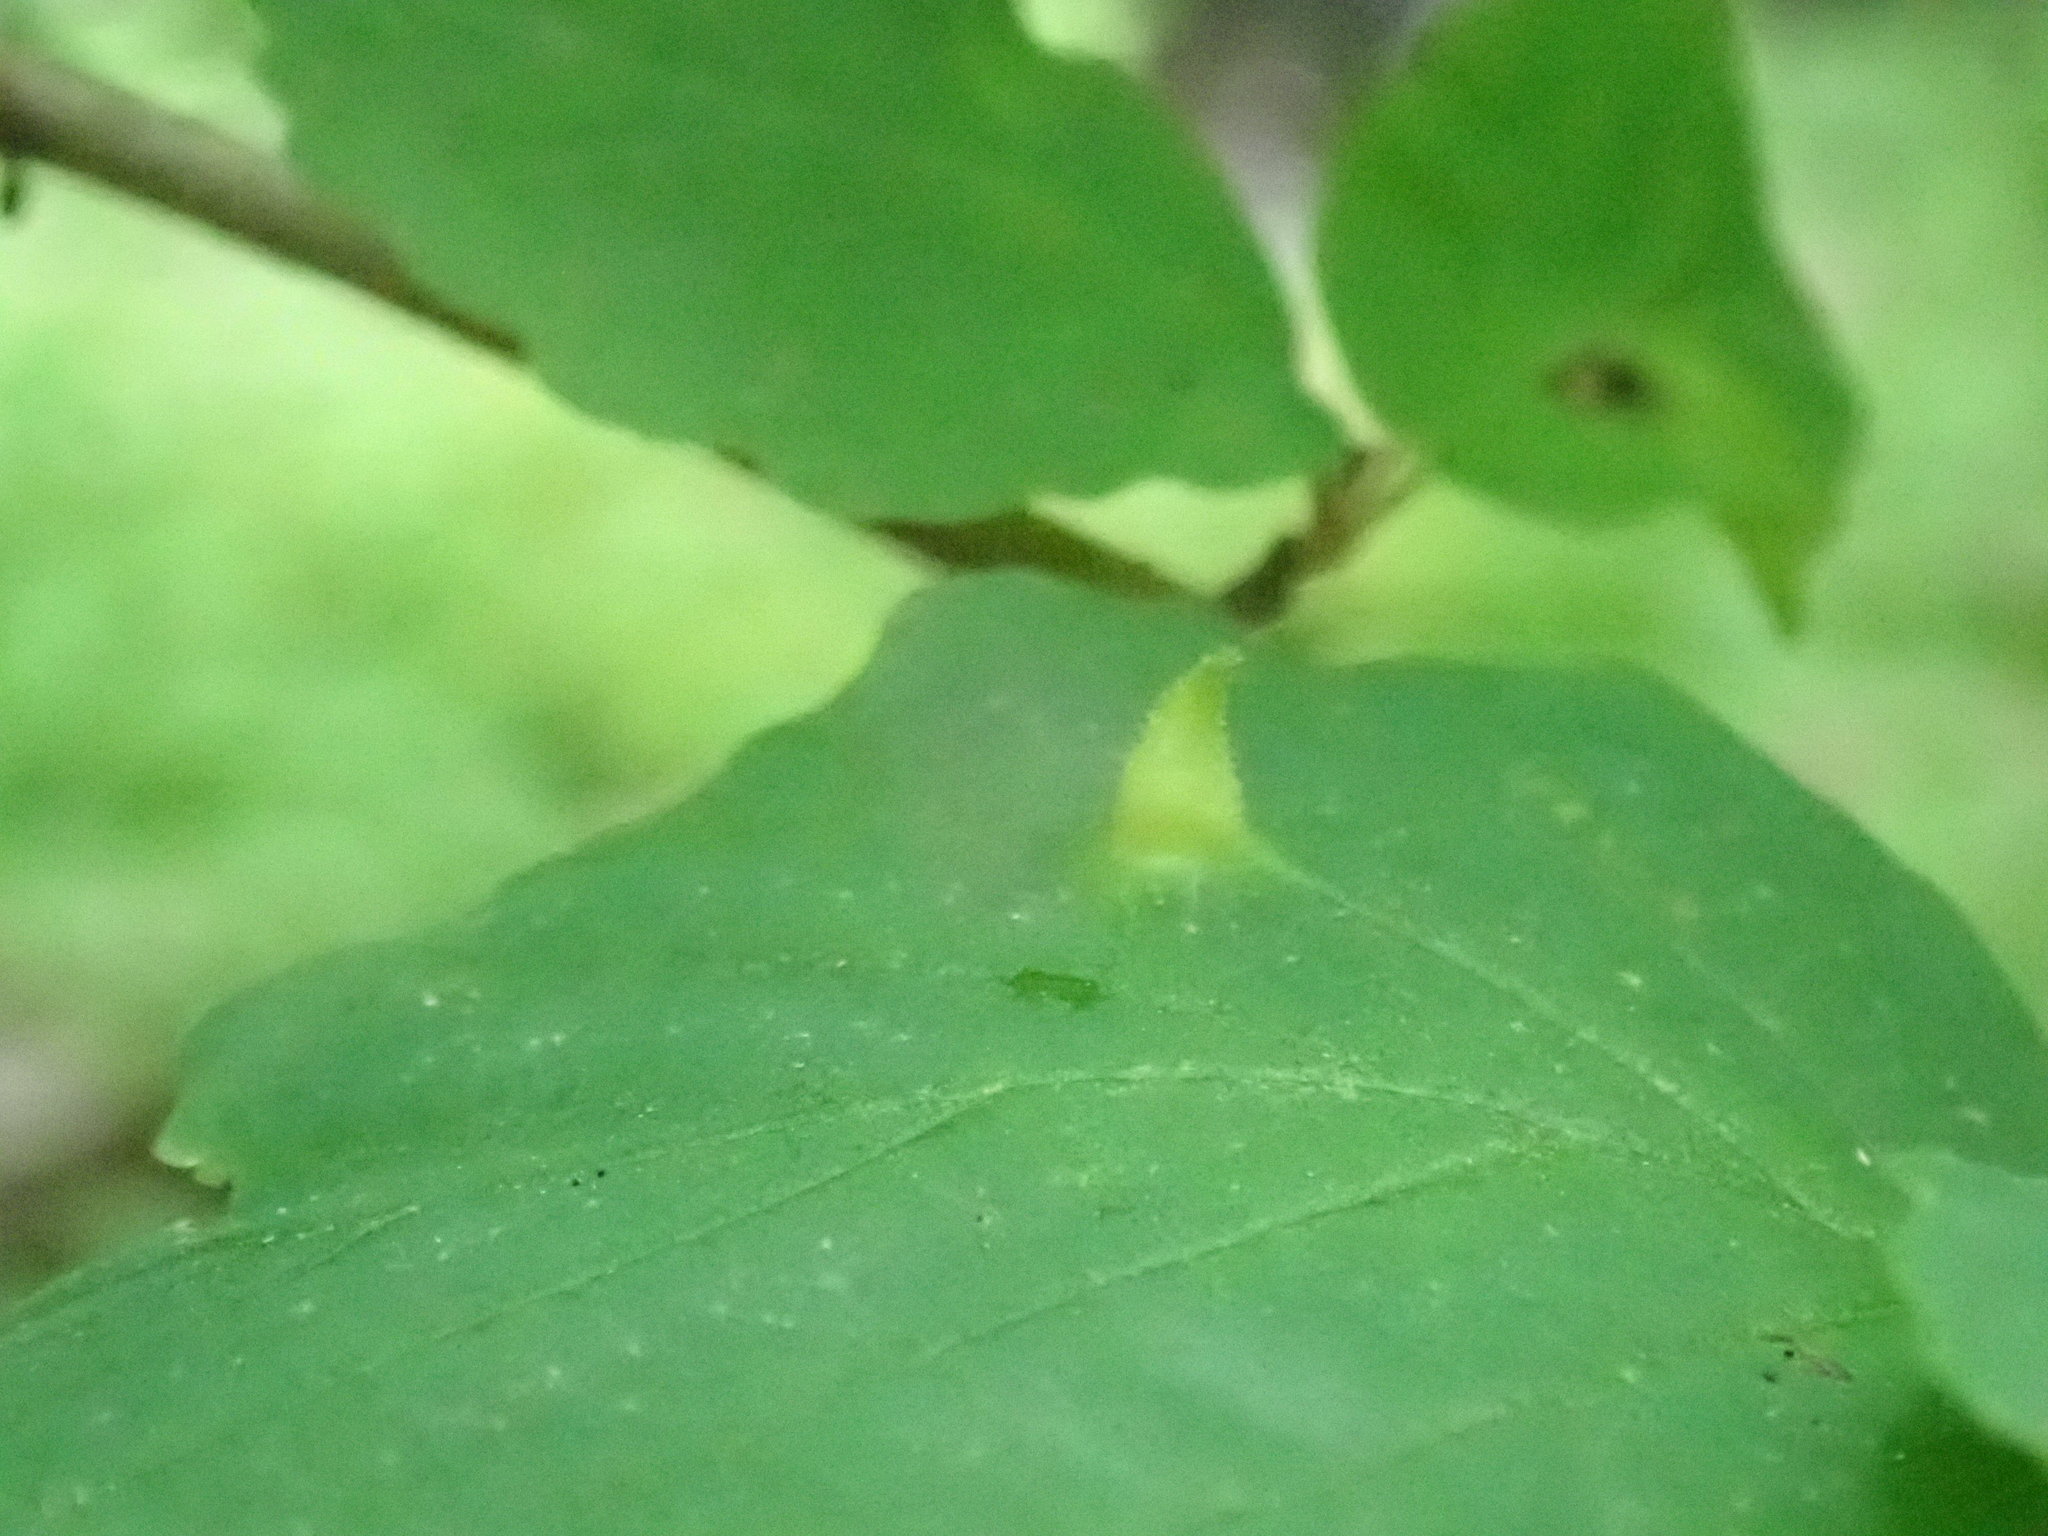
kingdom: Animalia
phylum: Arthropoda
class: Insecta
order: Hemiptera
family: Aphididae
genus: Hormaphis
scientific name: Hormaphis hamamelidis
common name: Witch-hazel cone gall aphid
